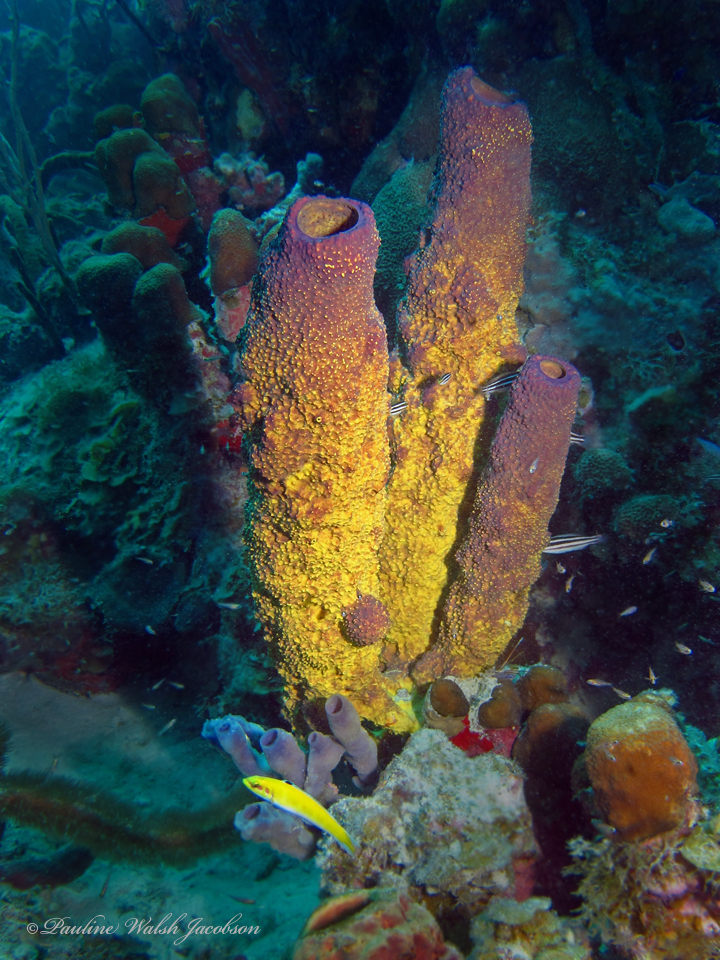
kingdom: Animalia
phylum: Porifera
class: Demospongiae
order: Verongiida
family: Aplysinidae
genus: Aiolochroia
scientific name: Aiolochroia crassa
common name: Branching tube sponge
